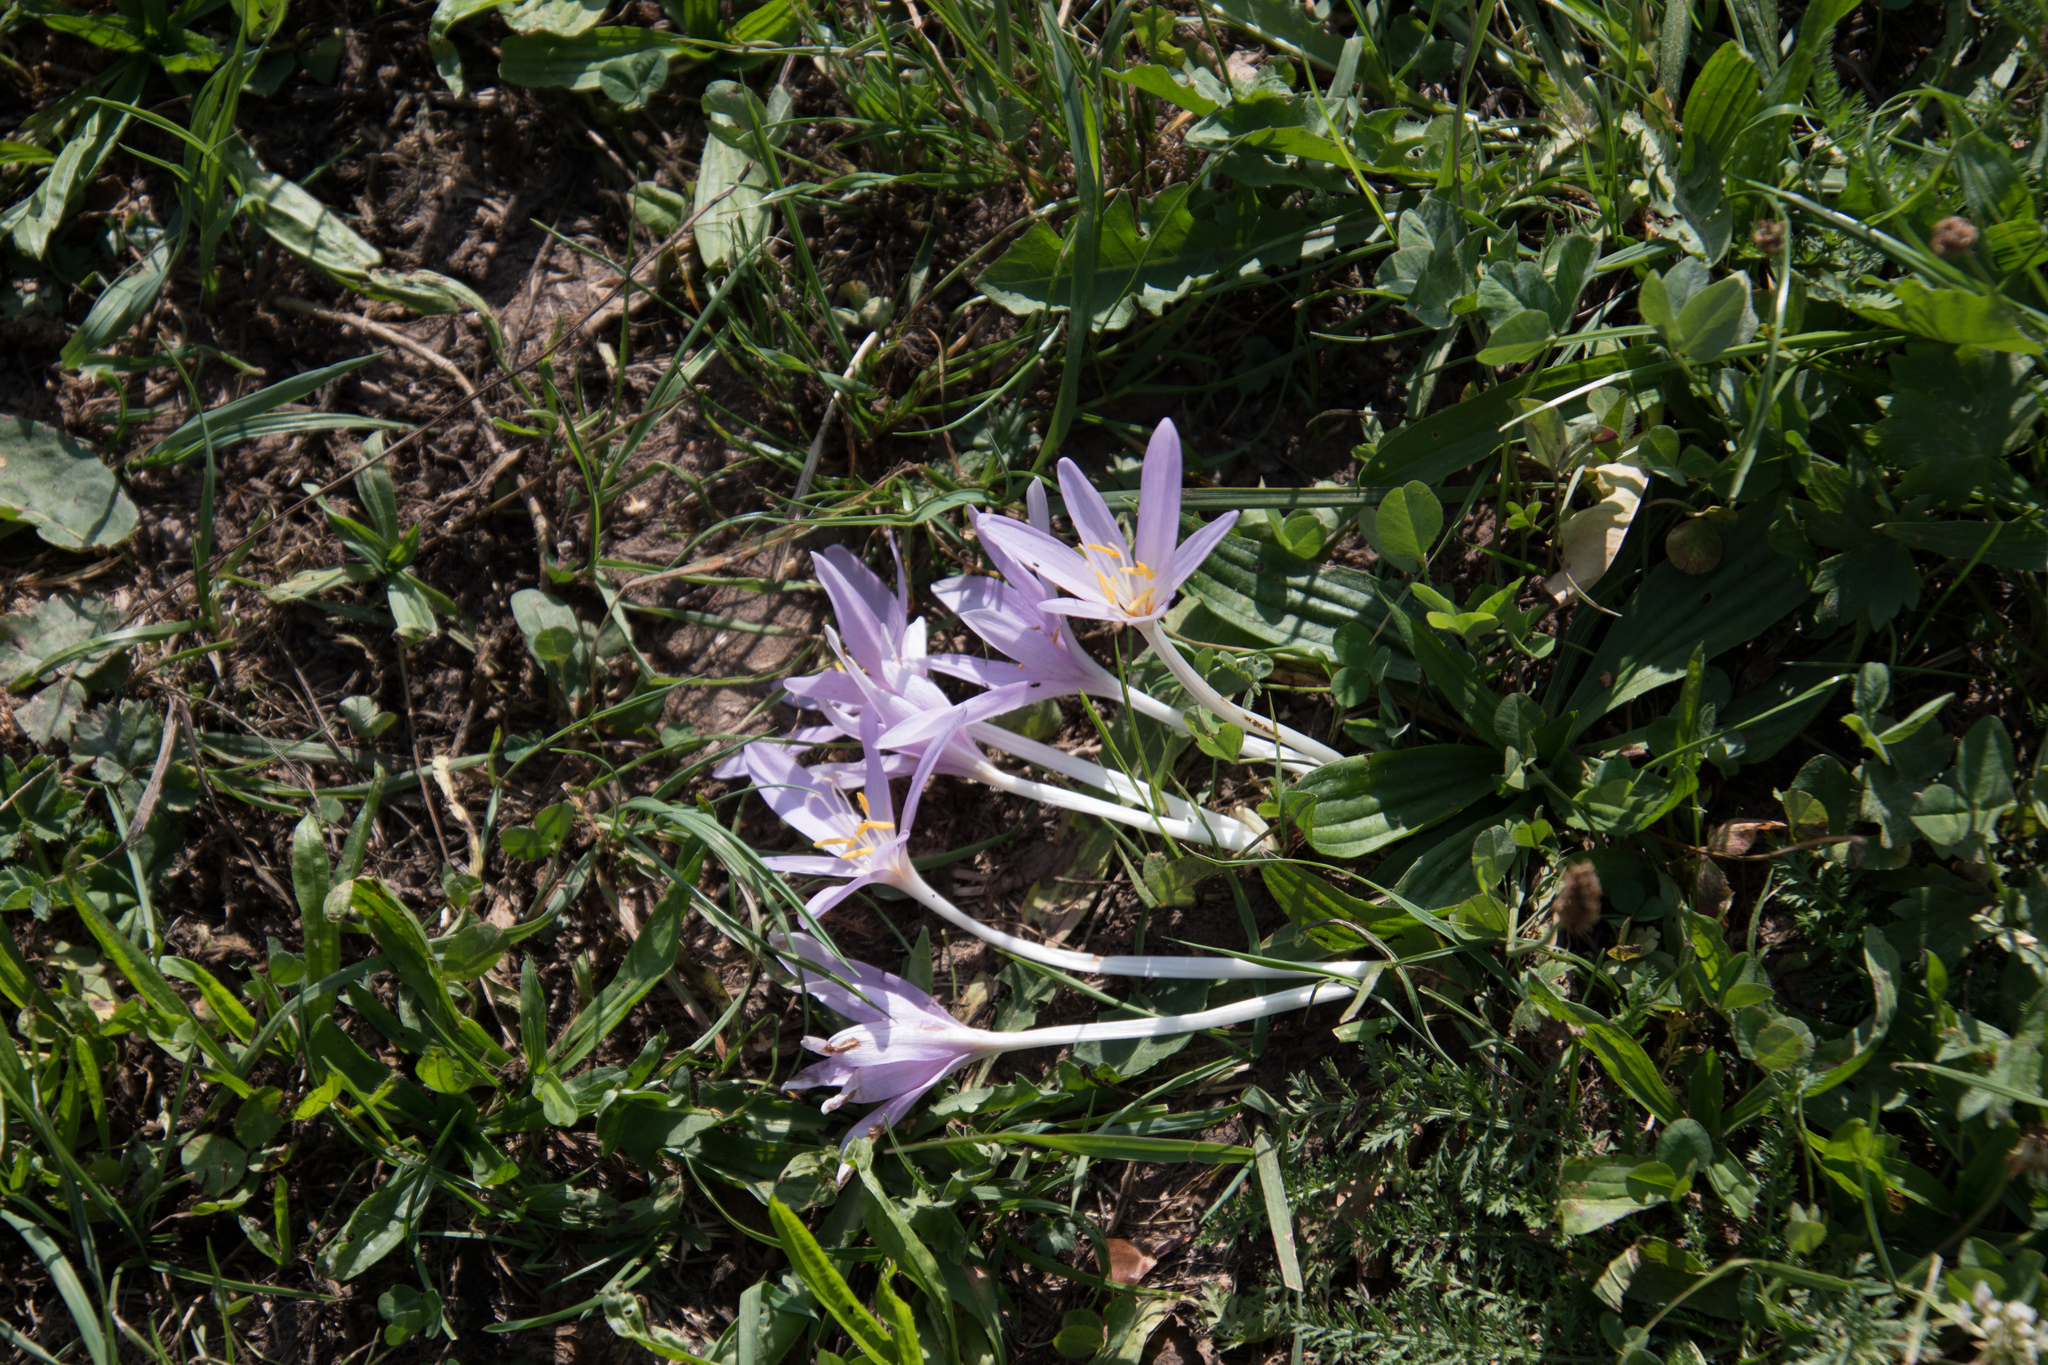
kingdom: Plantae
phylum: Tracheophyta
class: Liliopsida
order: Liliales
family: Colchicaceae
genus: Colchicum
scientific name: Colchicum autumnale
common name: Autumn crocus
